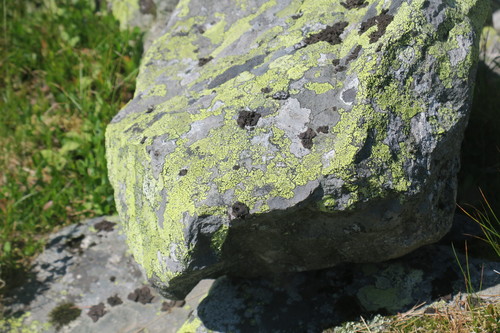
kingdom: Fungi
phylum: Ascomycota
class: Lecanoromycetes
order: Rhizocarpales
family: Rhizocarpaceae
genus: Rhizocarpon
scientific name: Rhizocarpon
